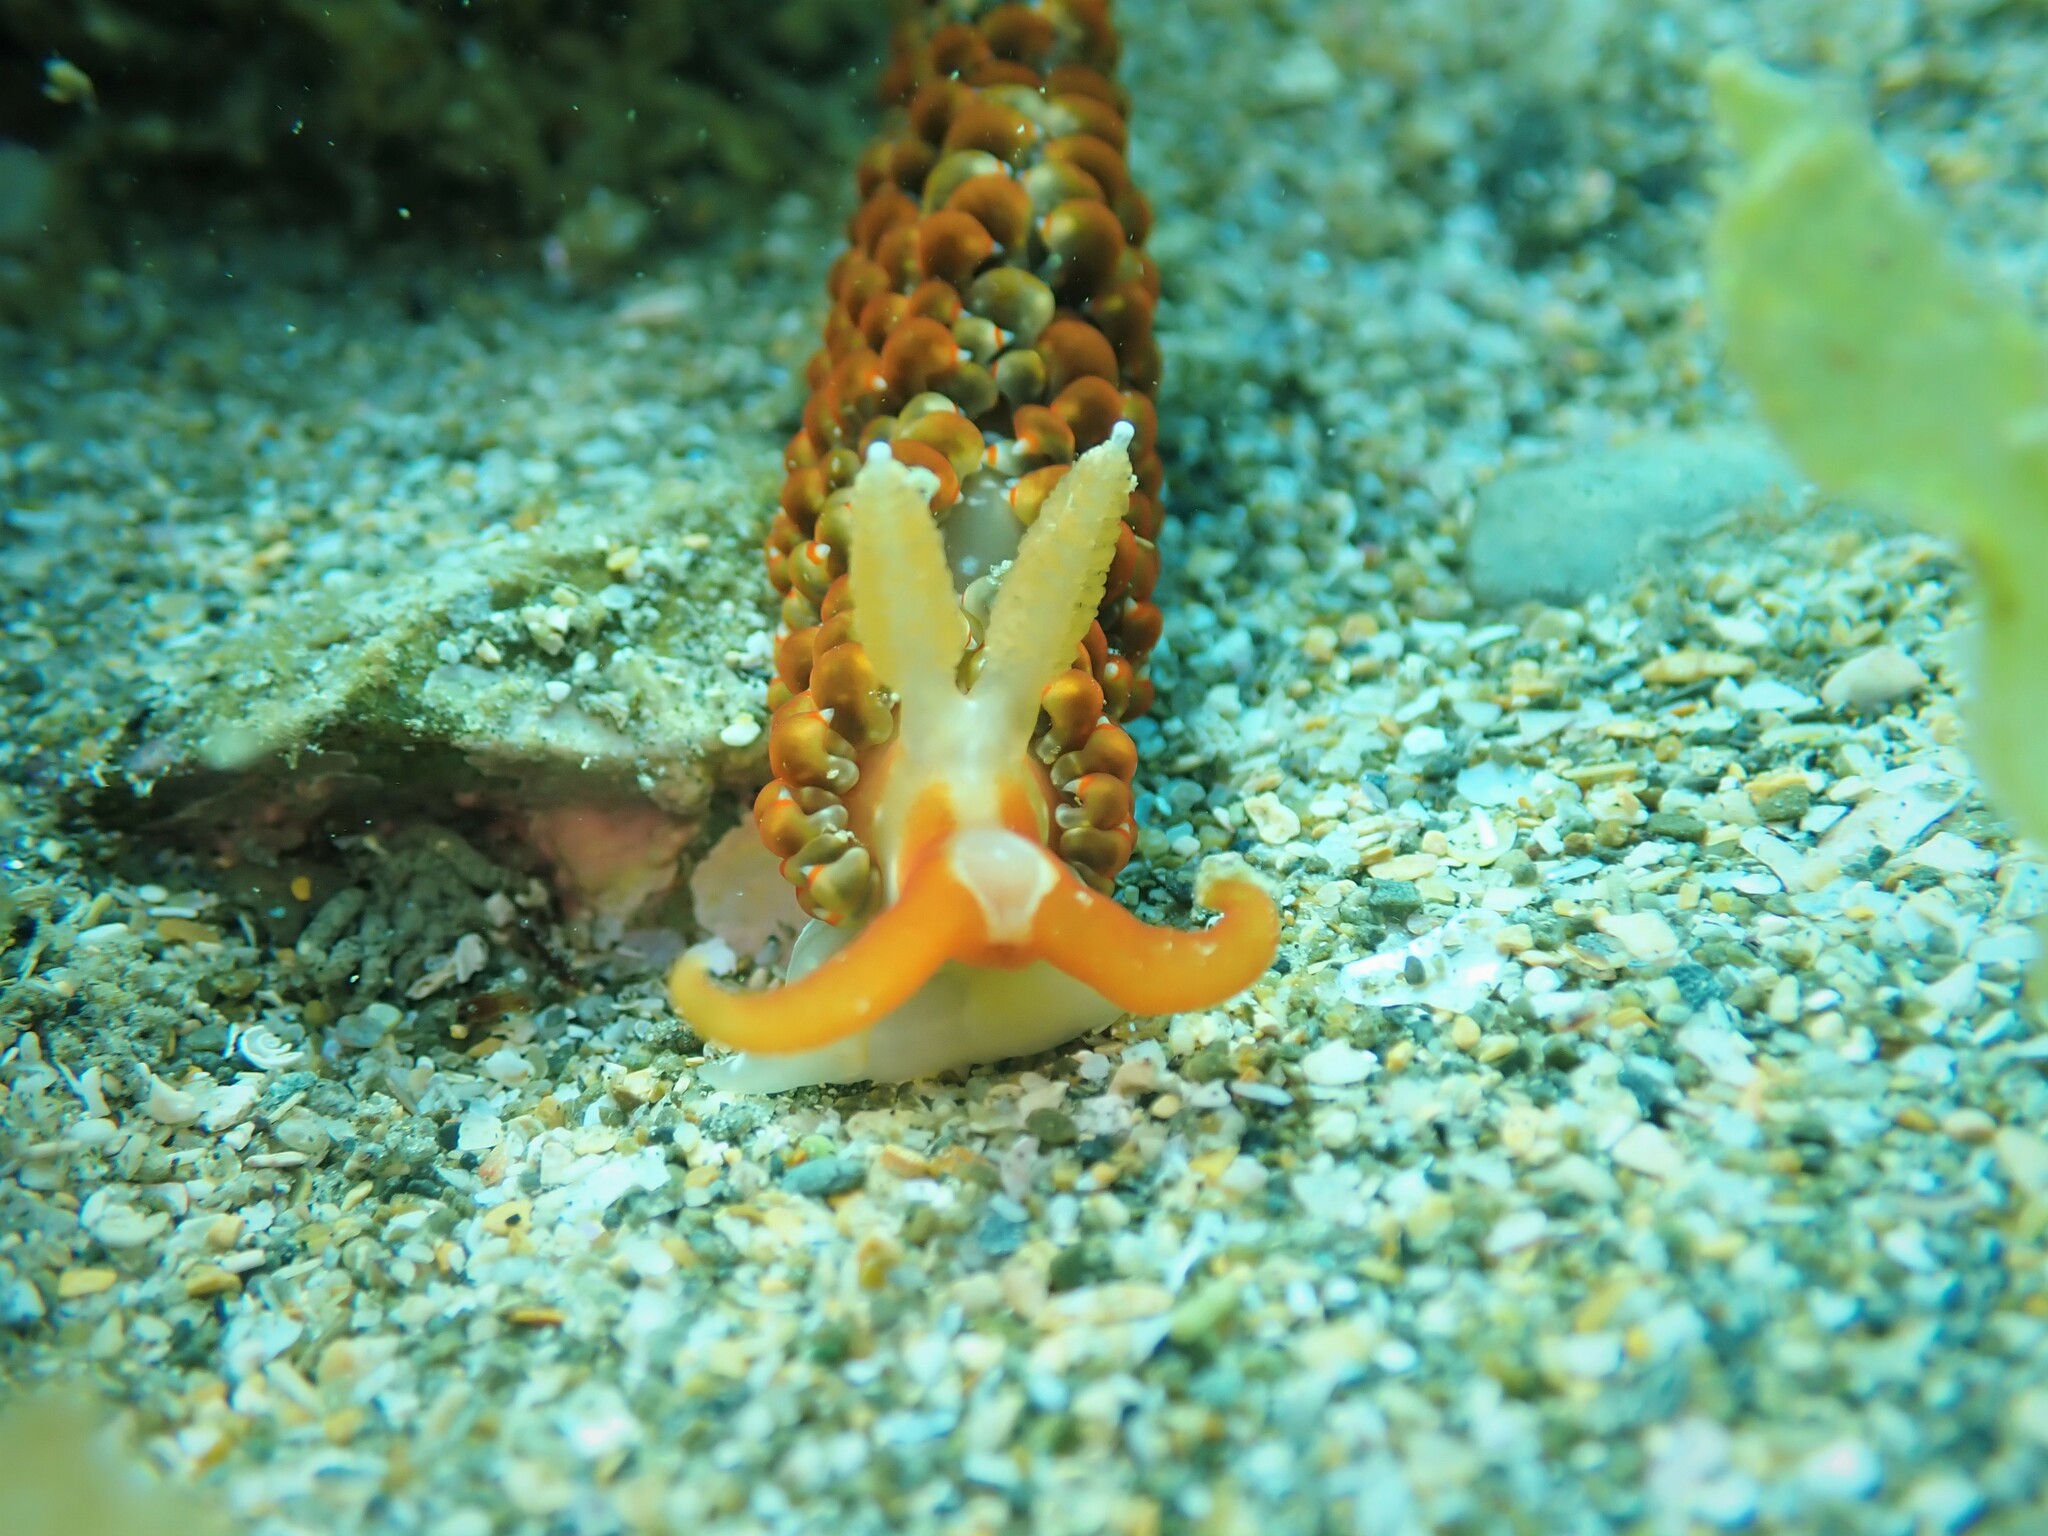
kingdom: Animalia
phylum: Mollusca
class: Gastropoda
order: Nudibranchia
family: Aeolidiidae
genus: Baeolidia
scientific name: Baeolidia australis
